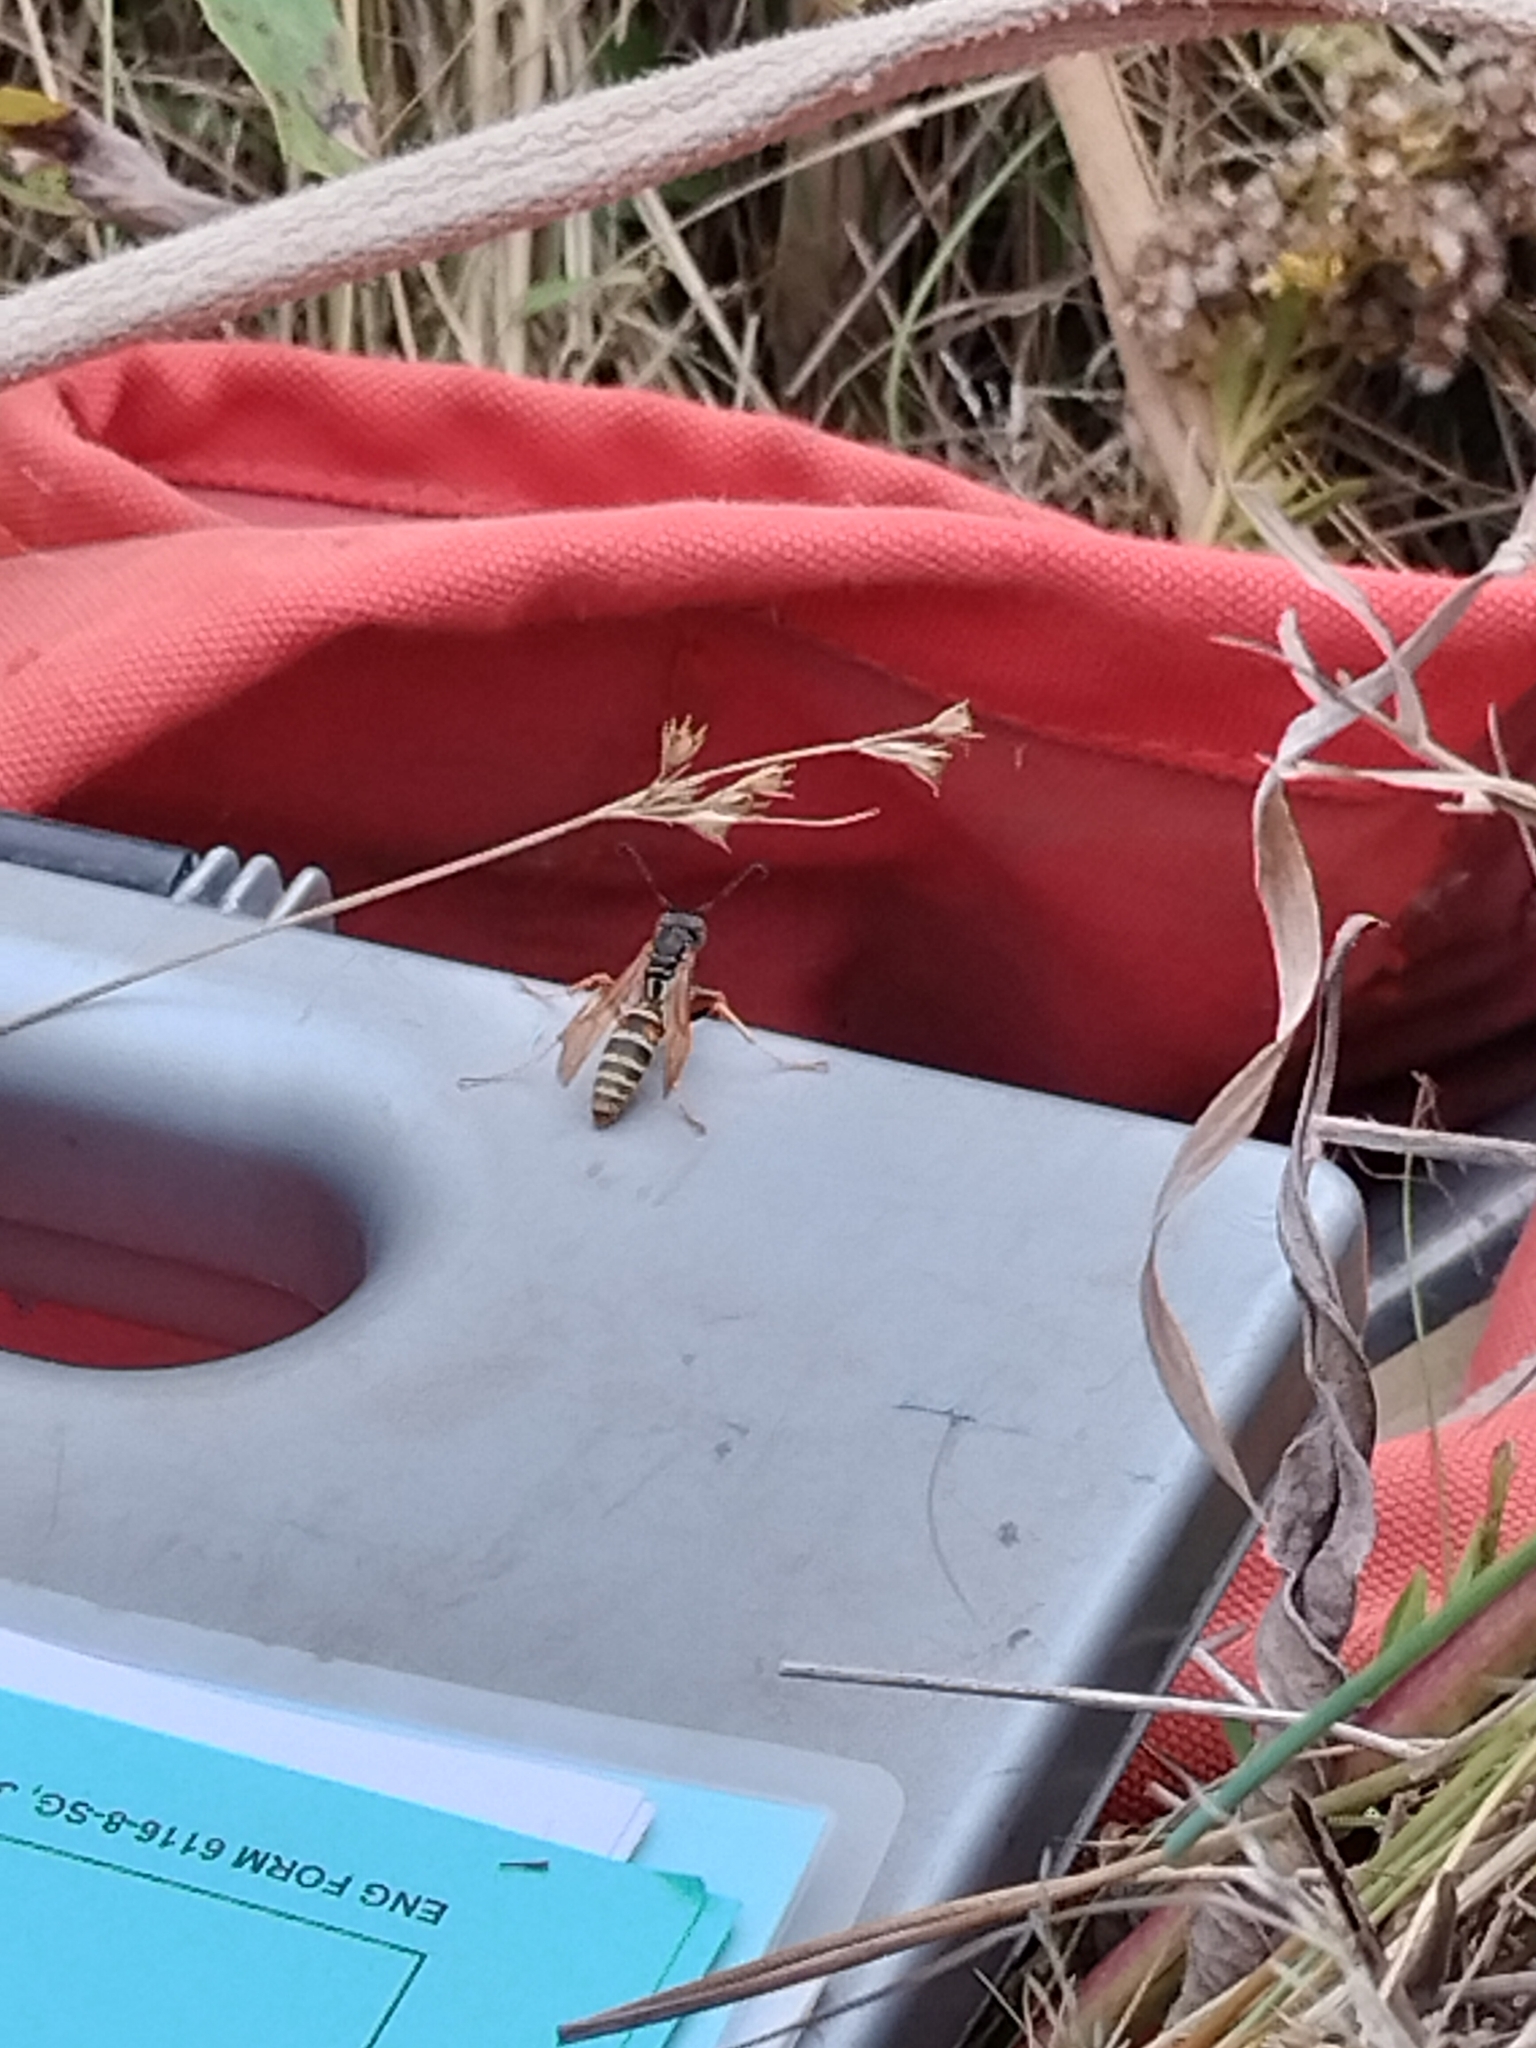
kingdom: Animalia
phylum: Arthropoda
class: Insecta
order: Hymenoptera
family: Eumenidae
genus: Polistes
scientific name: Polistes fuscatus
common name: Dark paper wasp
